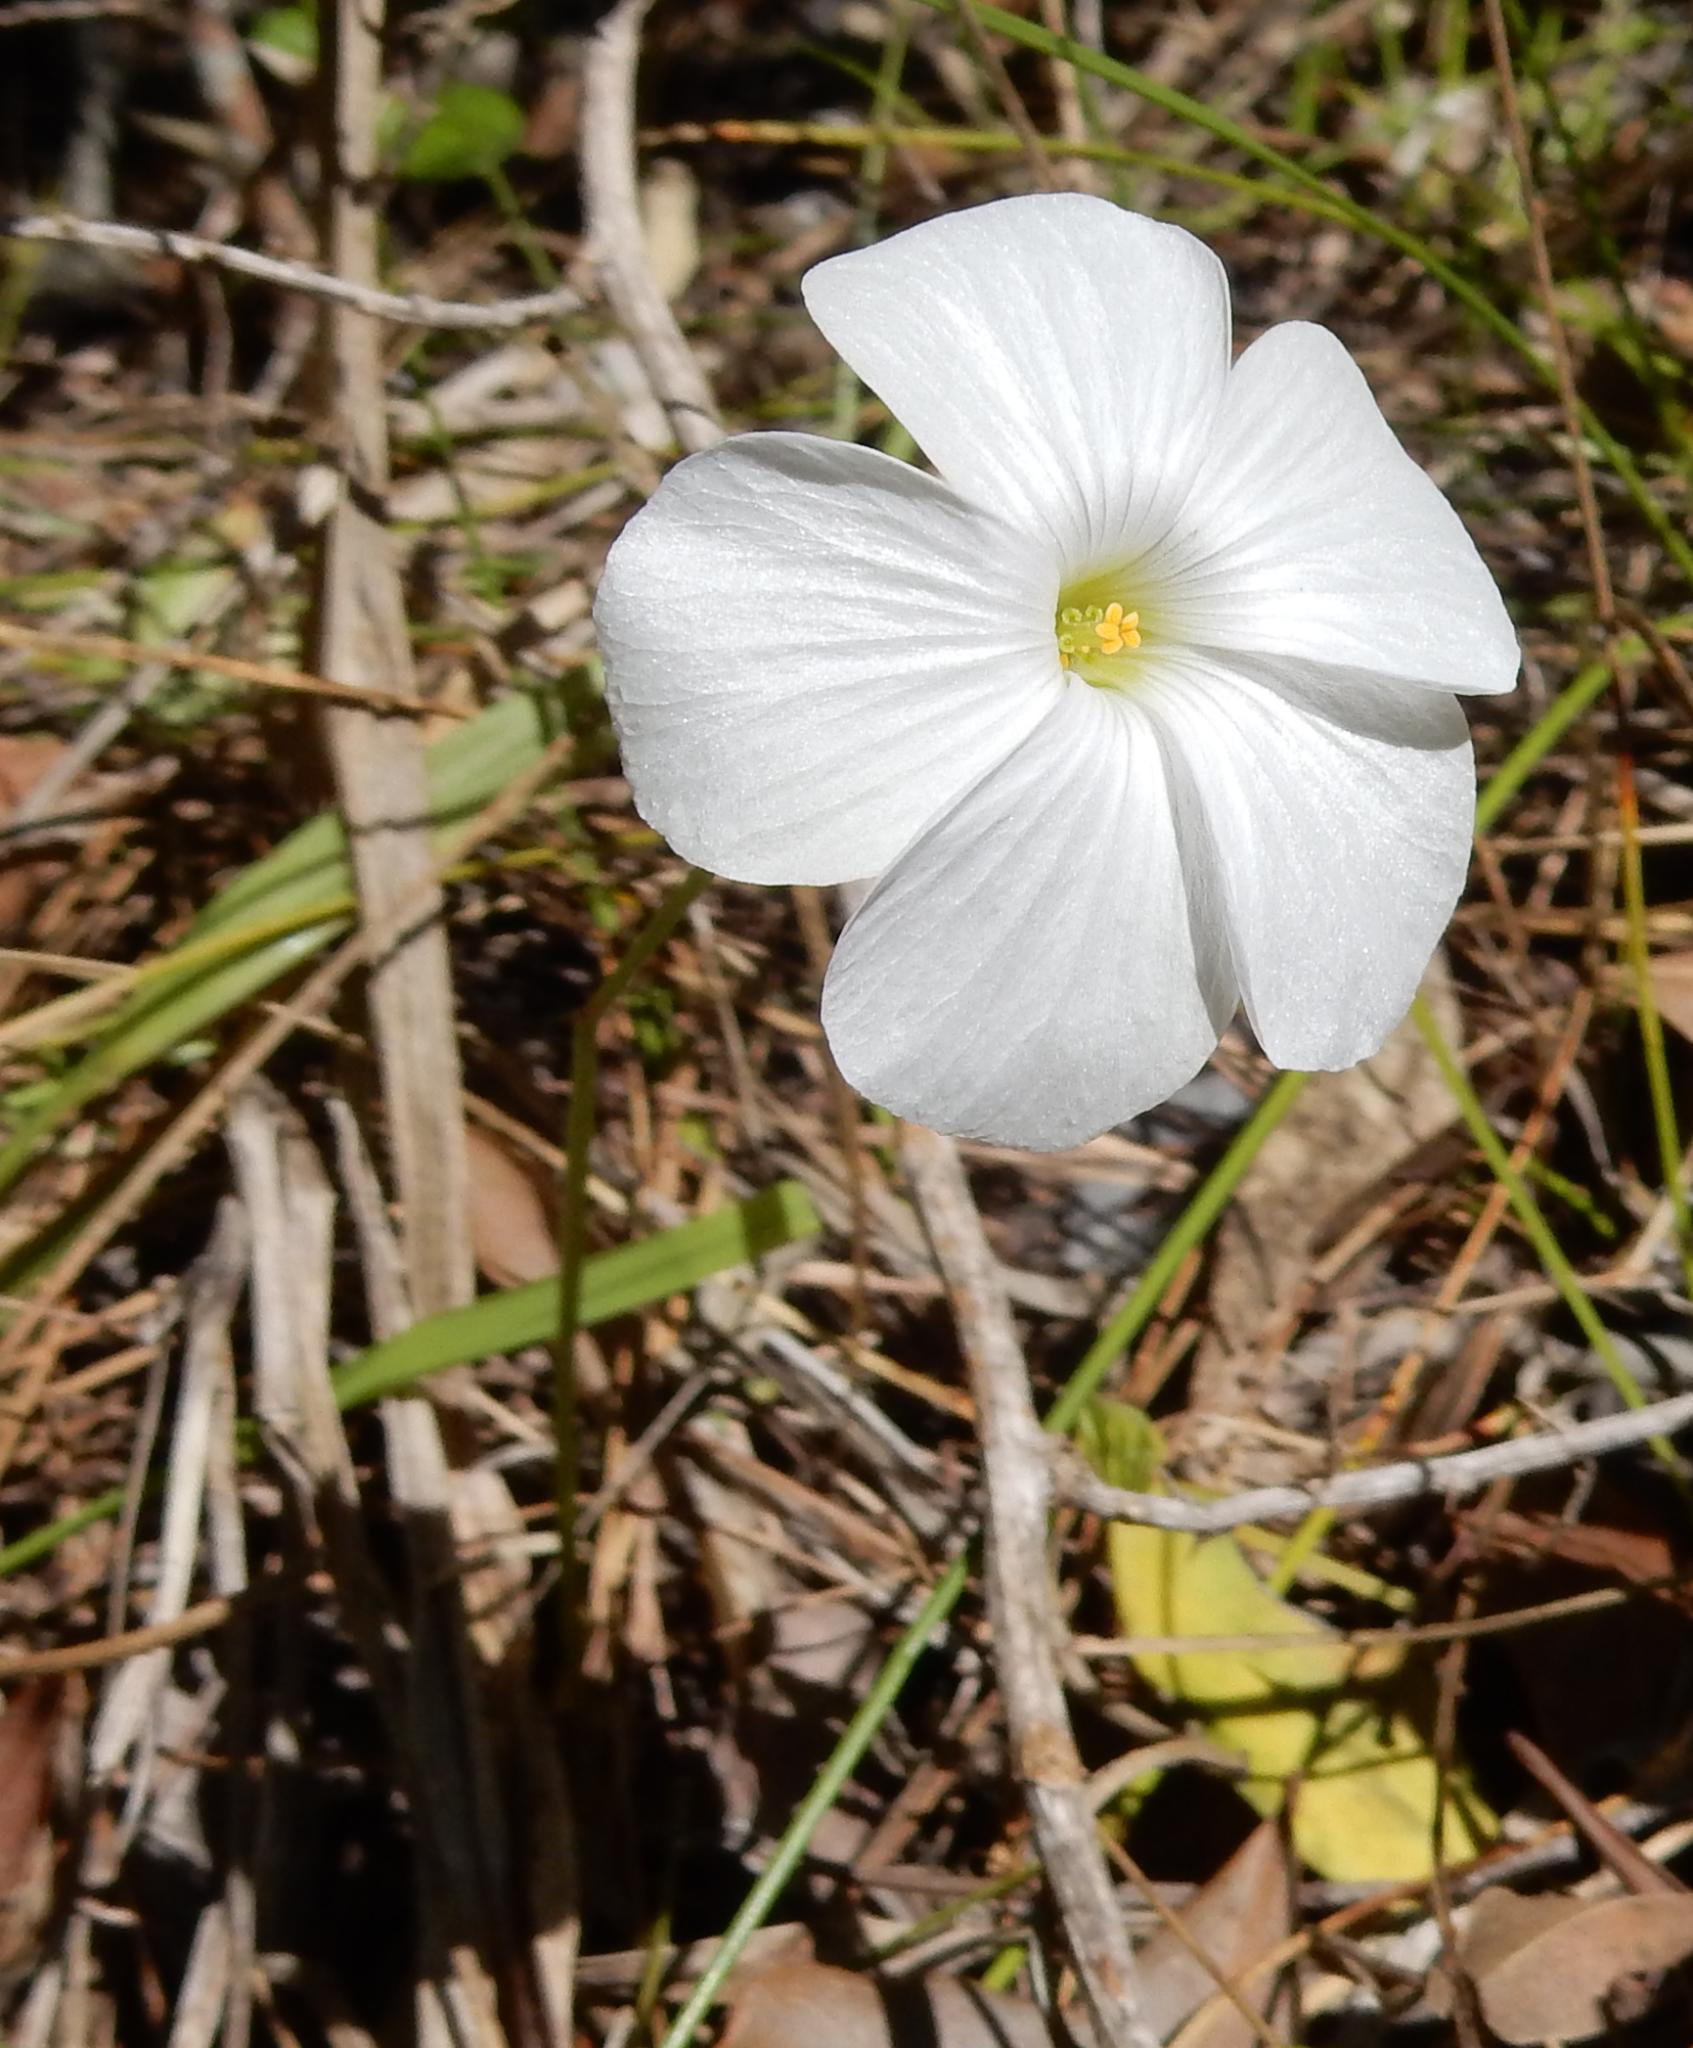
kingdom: Plantae
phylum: Tracheophyta
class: Magnoliopsida
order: Oxalidales
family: Oxalidaceae
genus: Oxalis
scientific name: Oxalis smithiana
